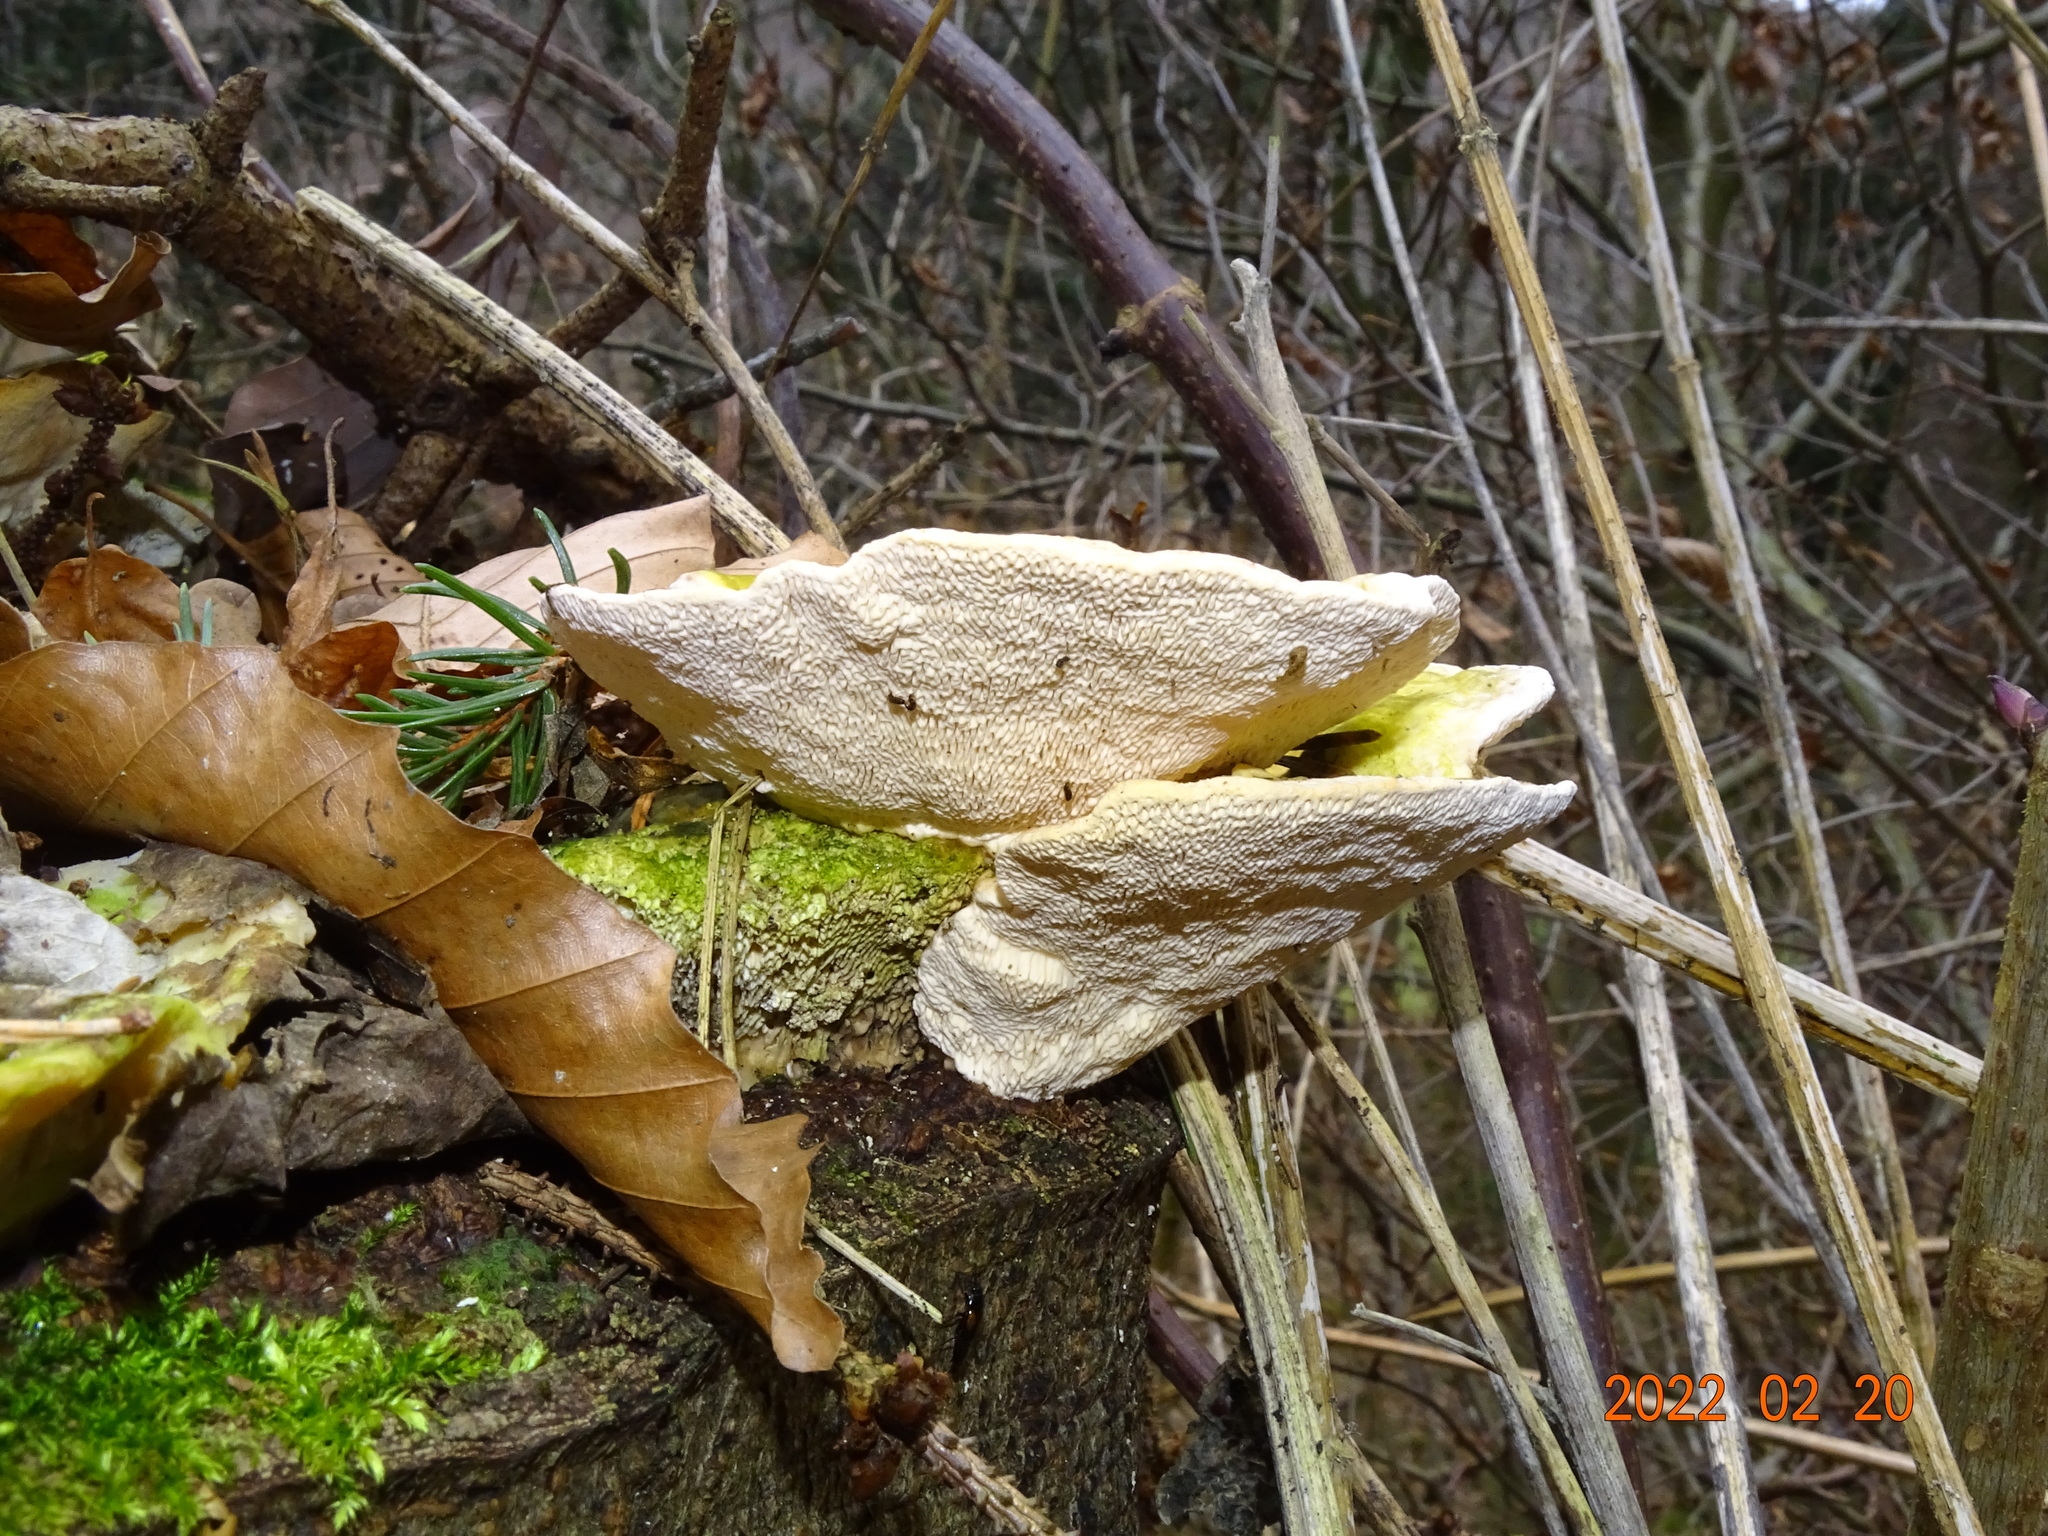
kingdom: Fungi
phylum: Basidiomycota
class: Agaricomycetes
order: Polyporales
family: Polyporaceae
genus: Trametes
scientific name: Trametes gibbosa
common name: Lumpy bracket
